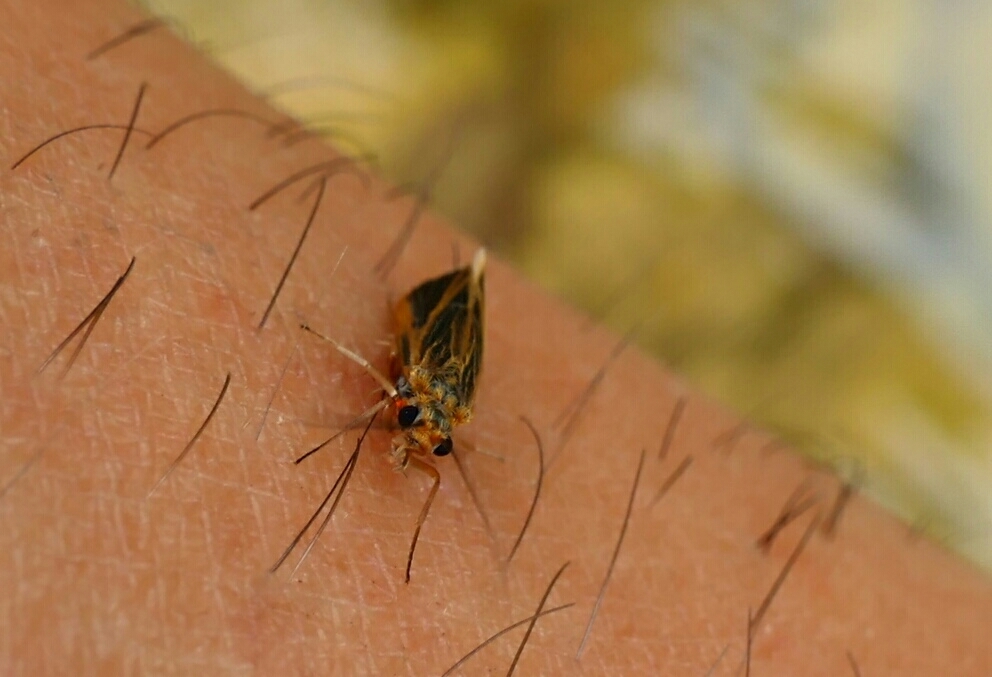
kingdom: Animalia
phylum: Arthropoda
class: Insecta
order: Trichoptera
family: Philopotamidae
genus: Chimarra
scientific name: Chimarra marginata
